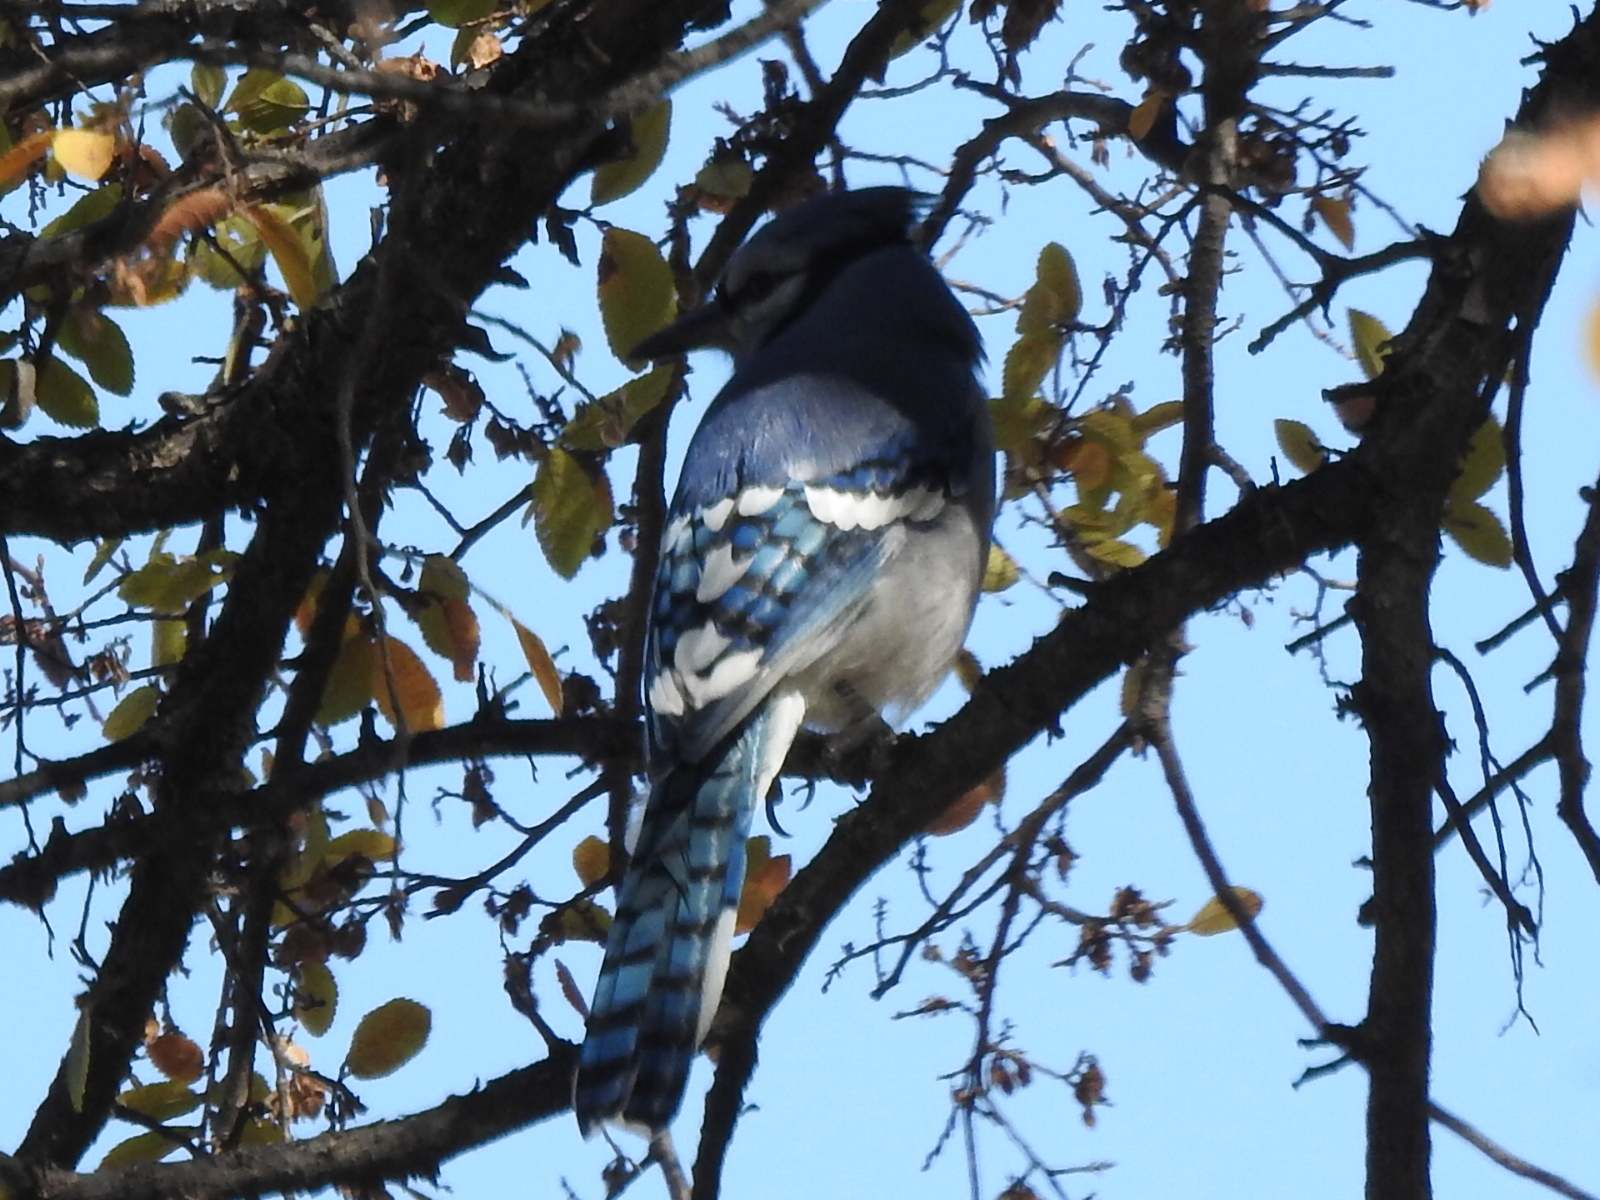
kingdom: Animalia
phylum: Chordata
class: Aves
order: Passeriformes
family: Corvidae
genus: Cyanocitta
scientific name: Cyanocitta cristata
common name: Blue jay
